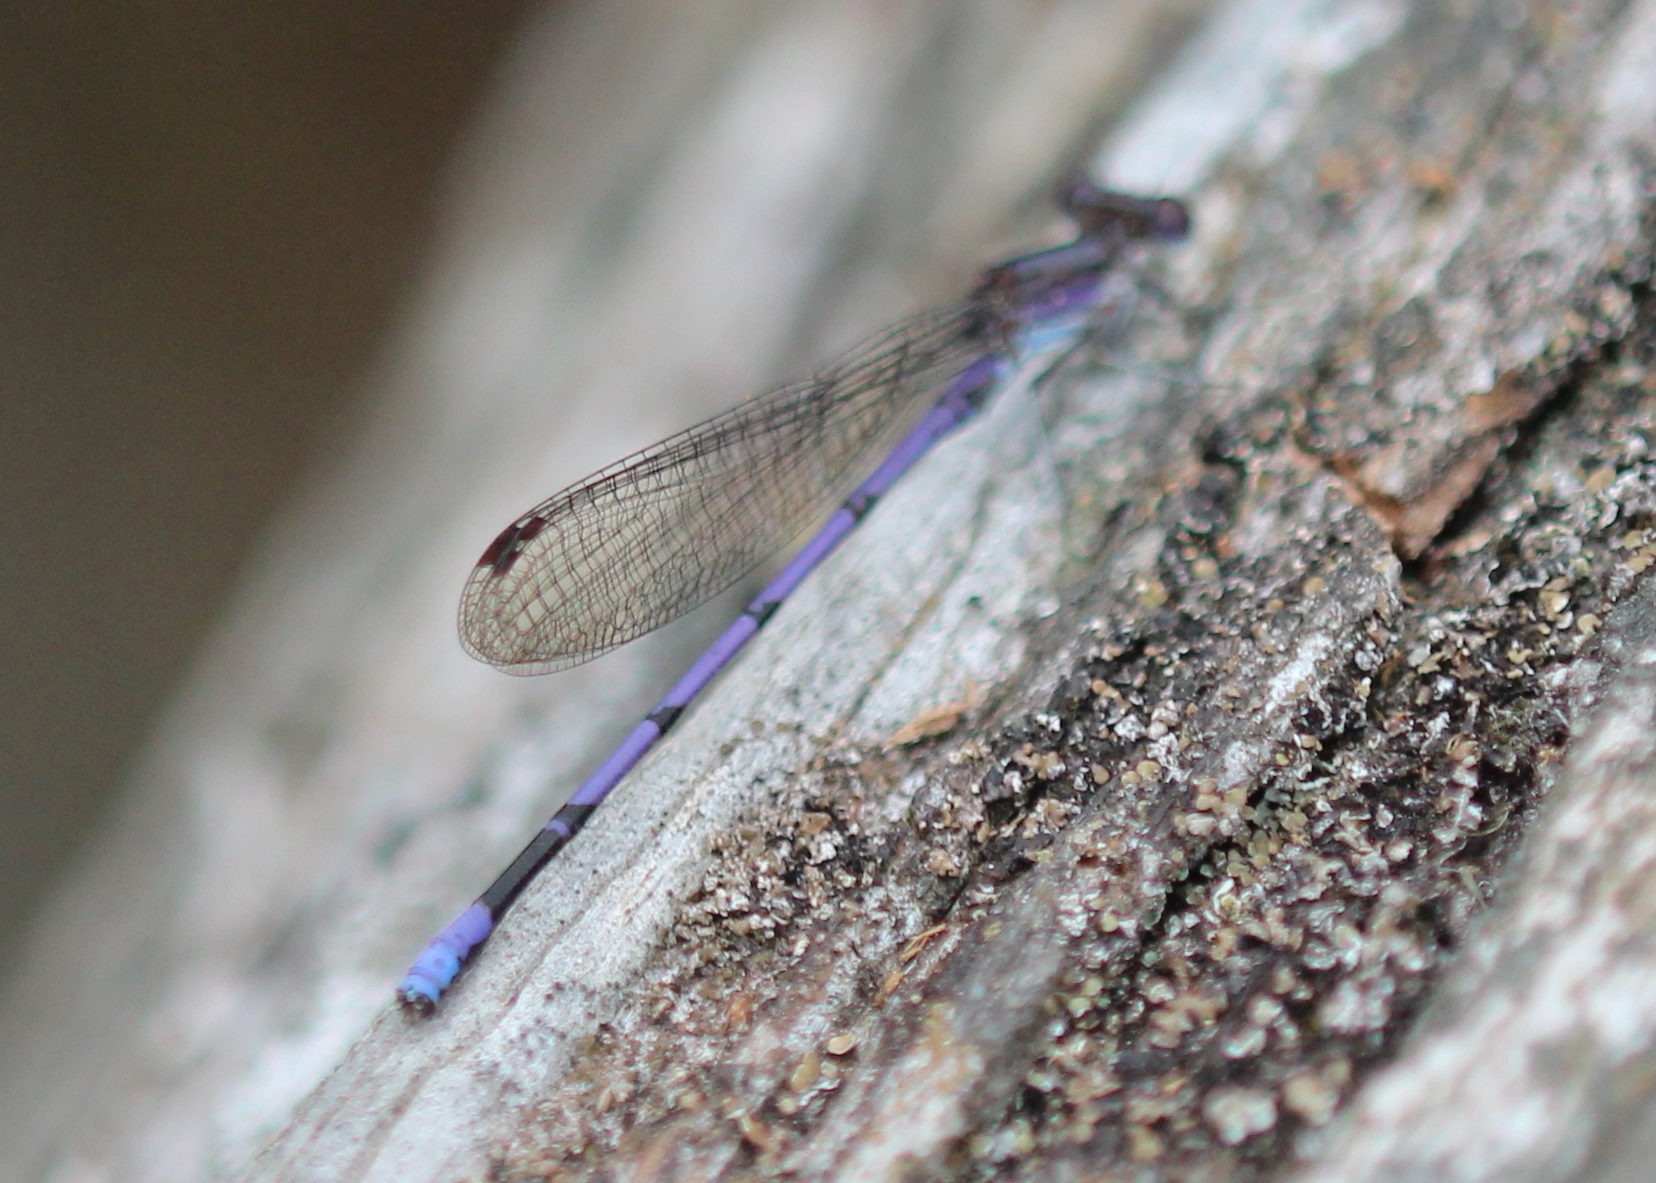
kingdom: Animalia
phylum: Arthropoda
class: Insecta
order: Odonata
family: Coenagrionidae
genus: Argia
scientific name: Argia fumipennis
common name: Variable dancer
